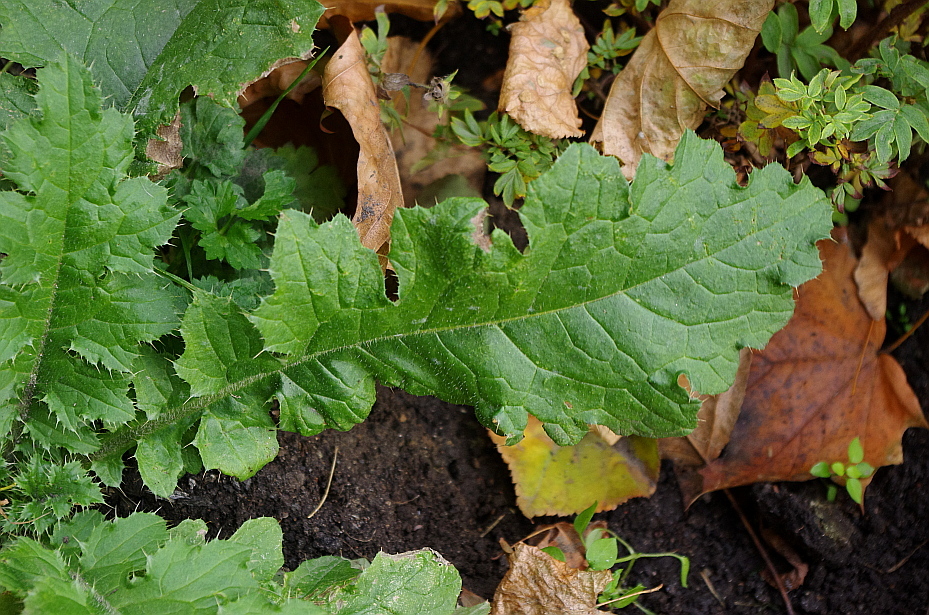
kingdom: Plantae
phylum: Tracheophyta
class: Magnoliopsida
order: Asterales
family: Asteraceae
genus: Carduus
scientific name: Carduus crispus
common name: Welted thistle
